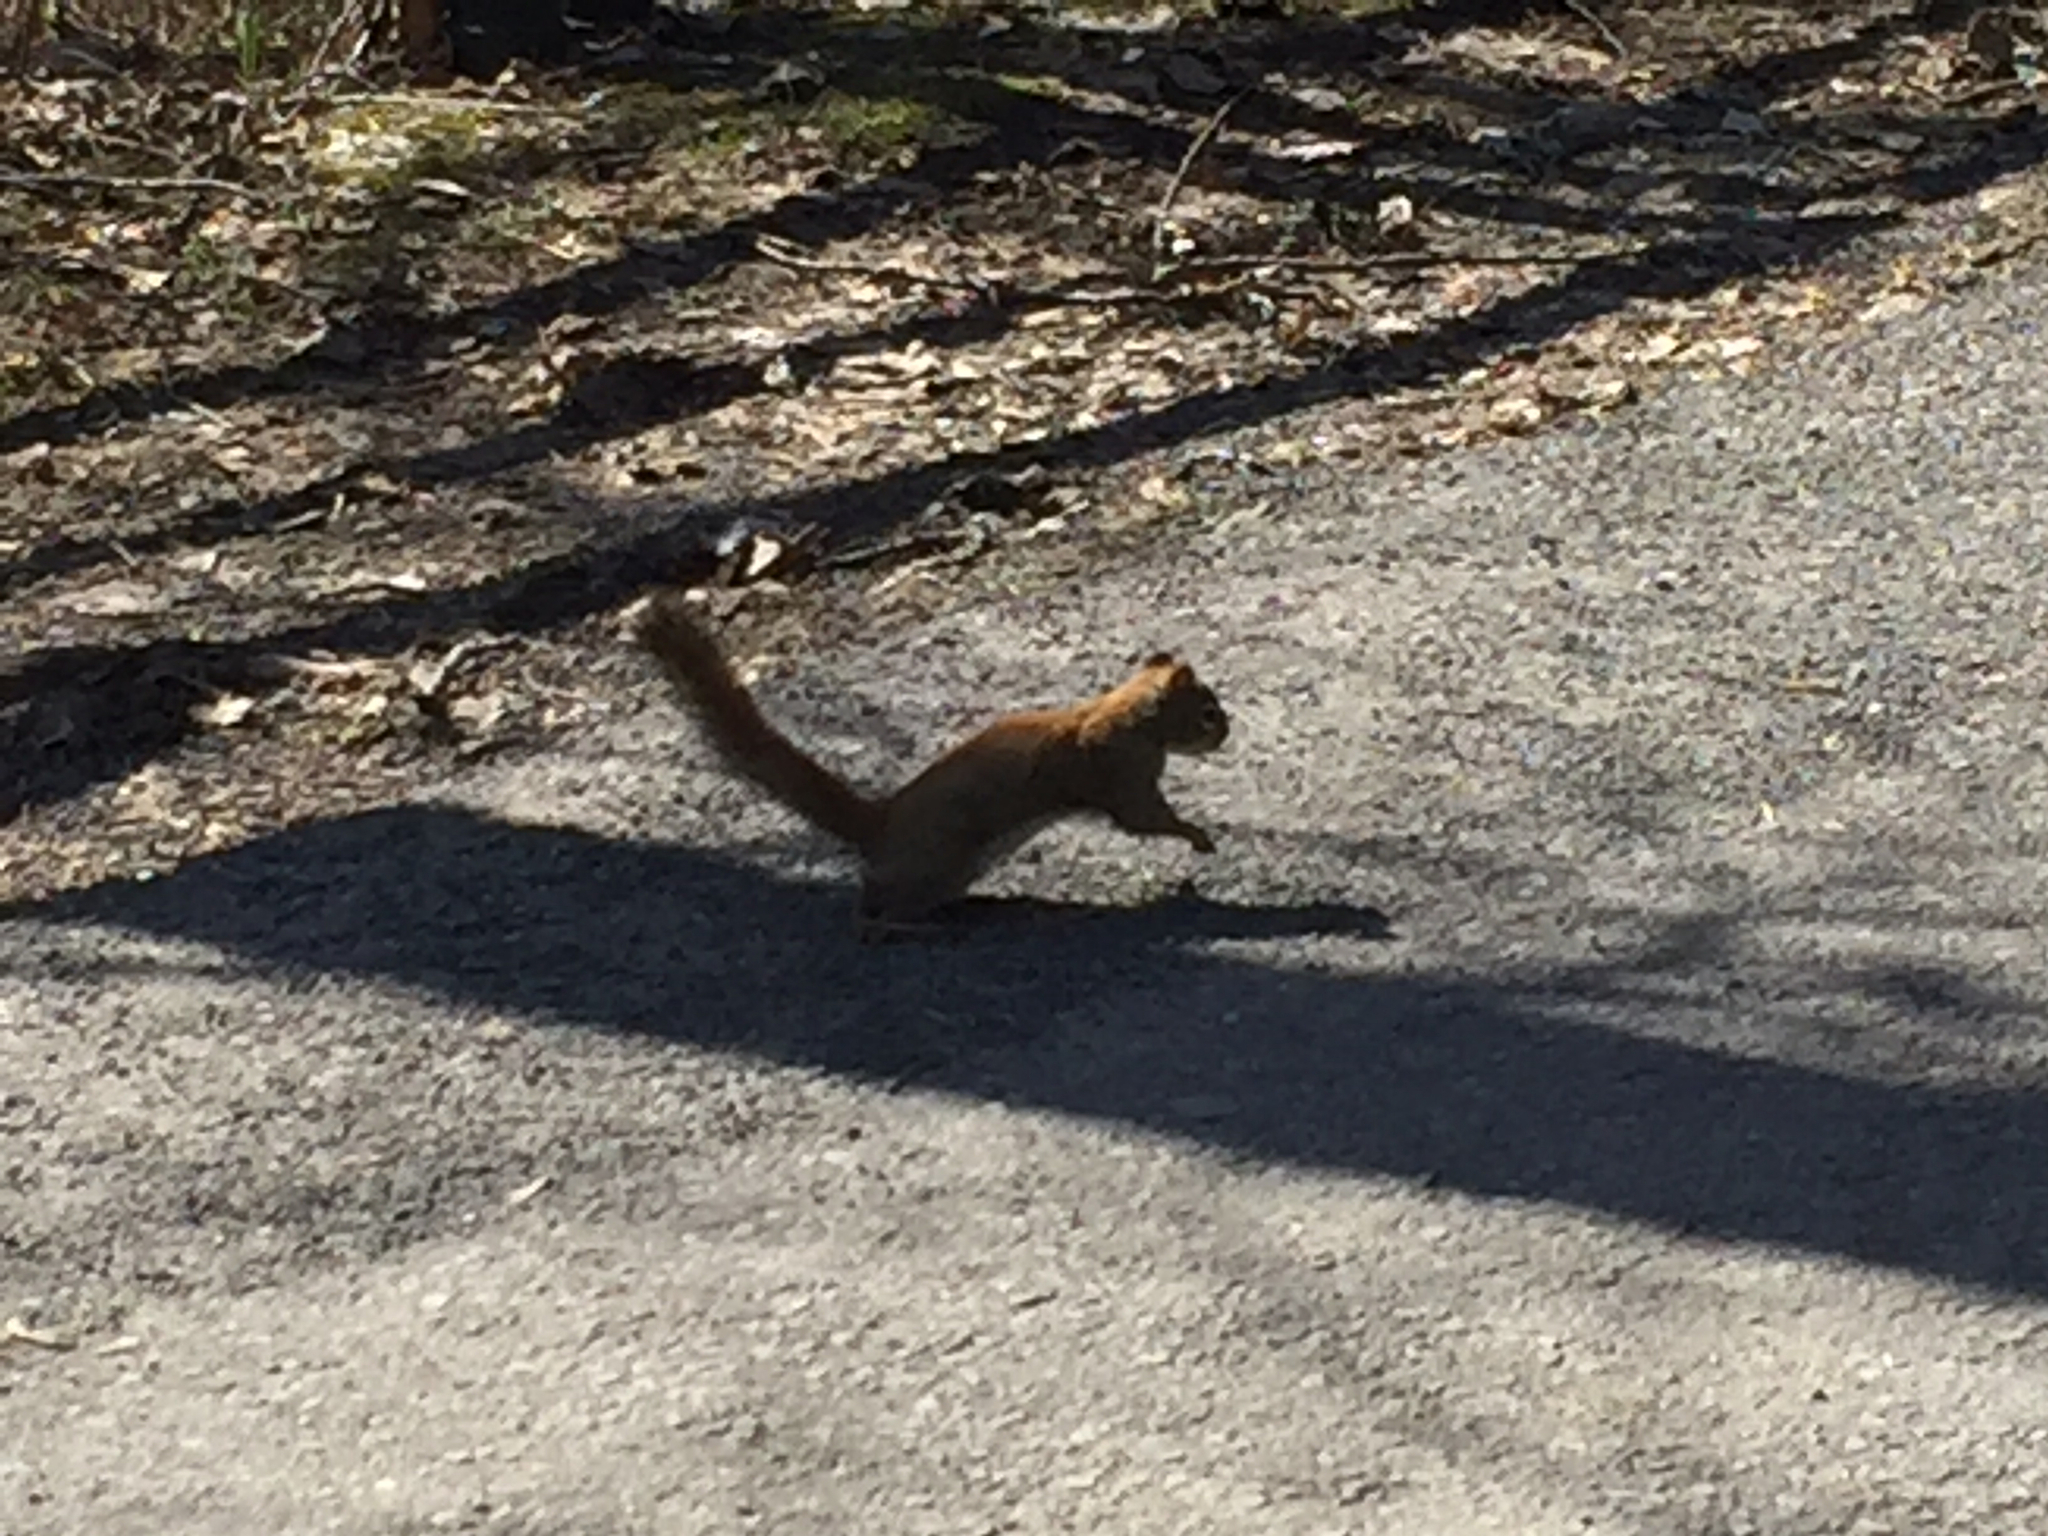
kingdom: Animalia
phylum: Chordata
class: Mammalia
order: Rodentia
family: Sciuridae
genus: Tamiasciurus
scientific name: Tamiasciurus hudsonicus
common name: Red squirrel
